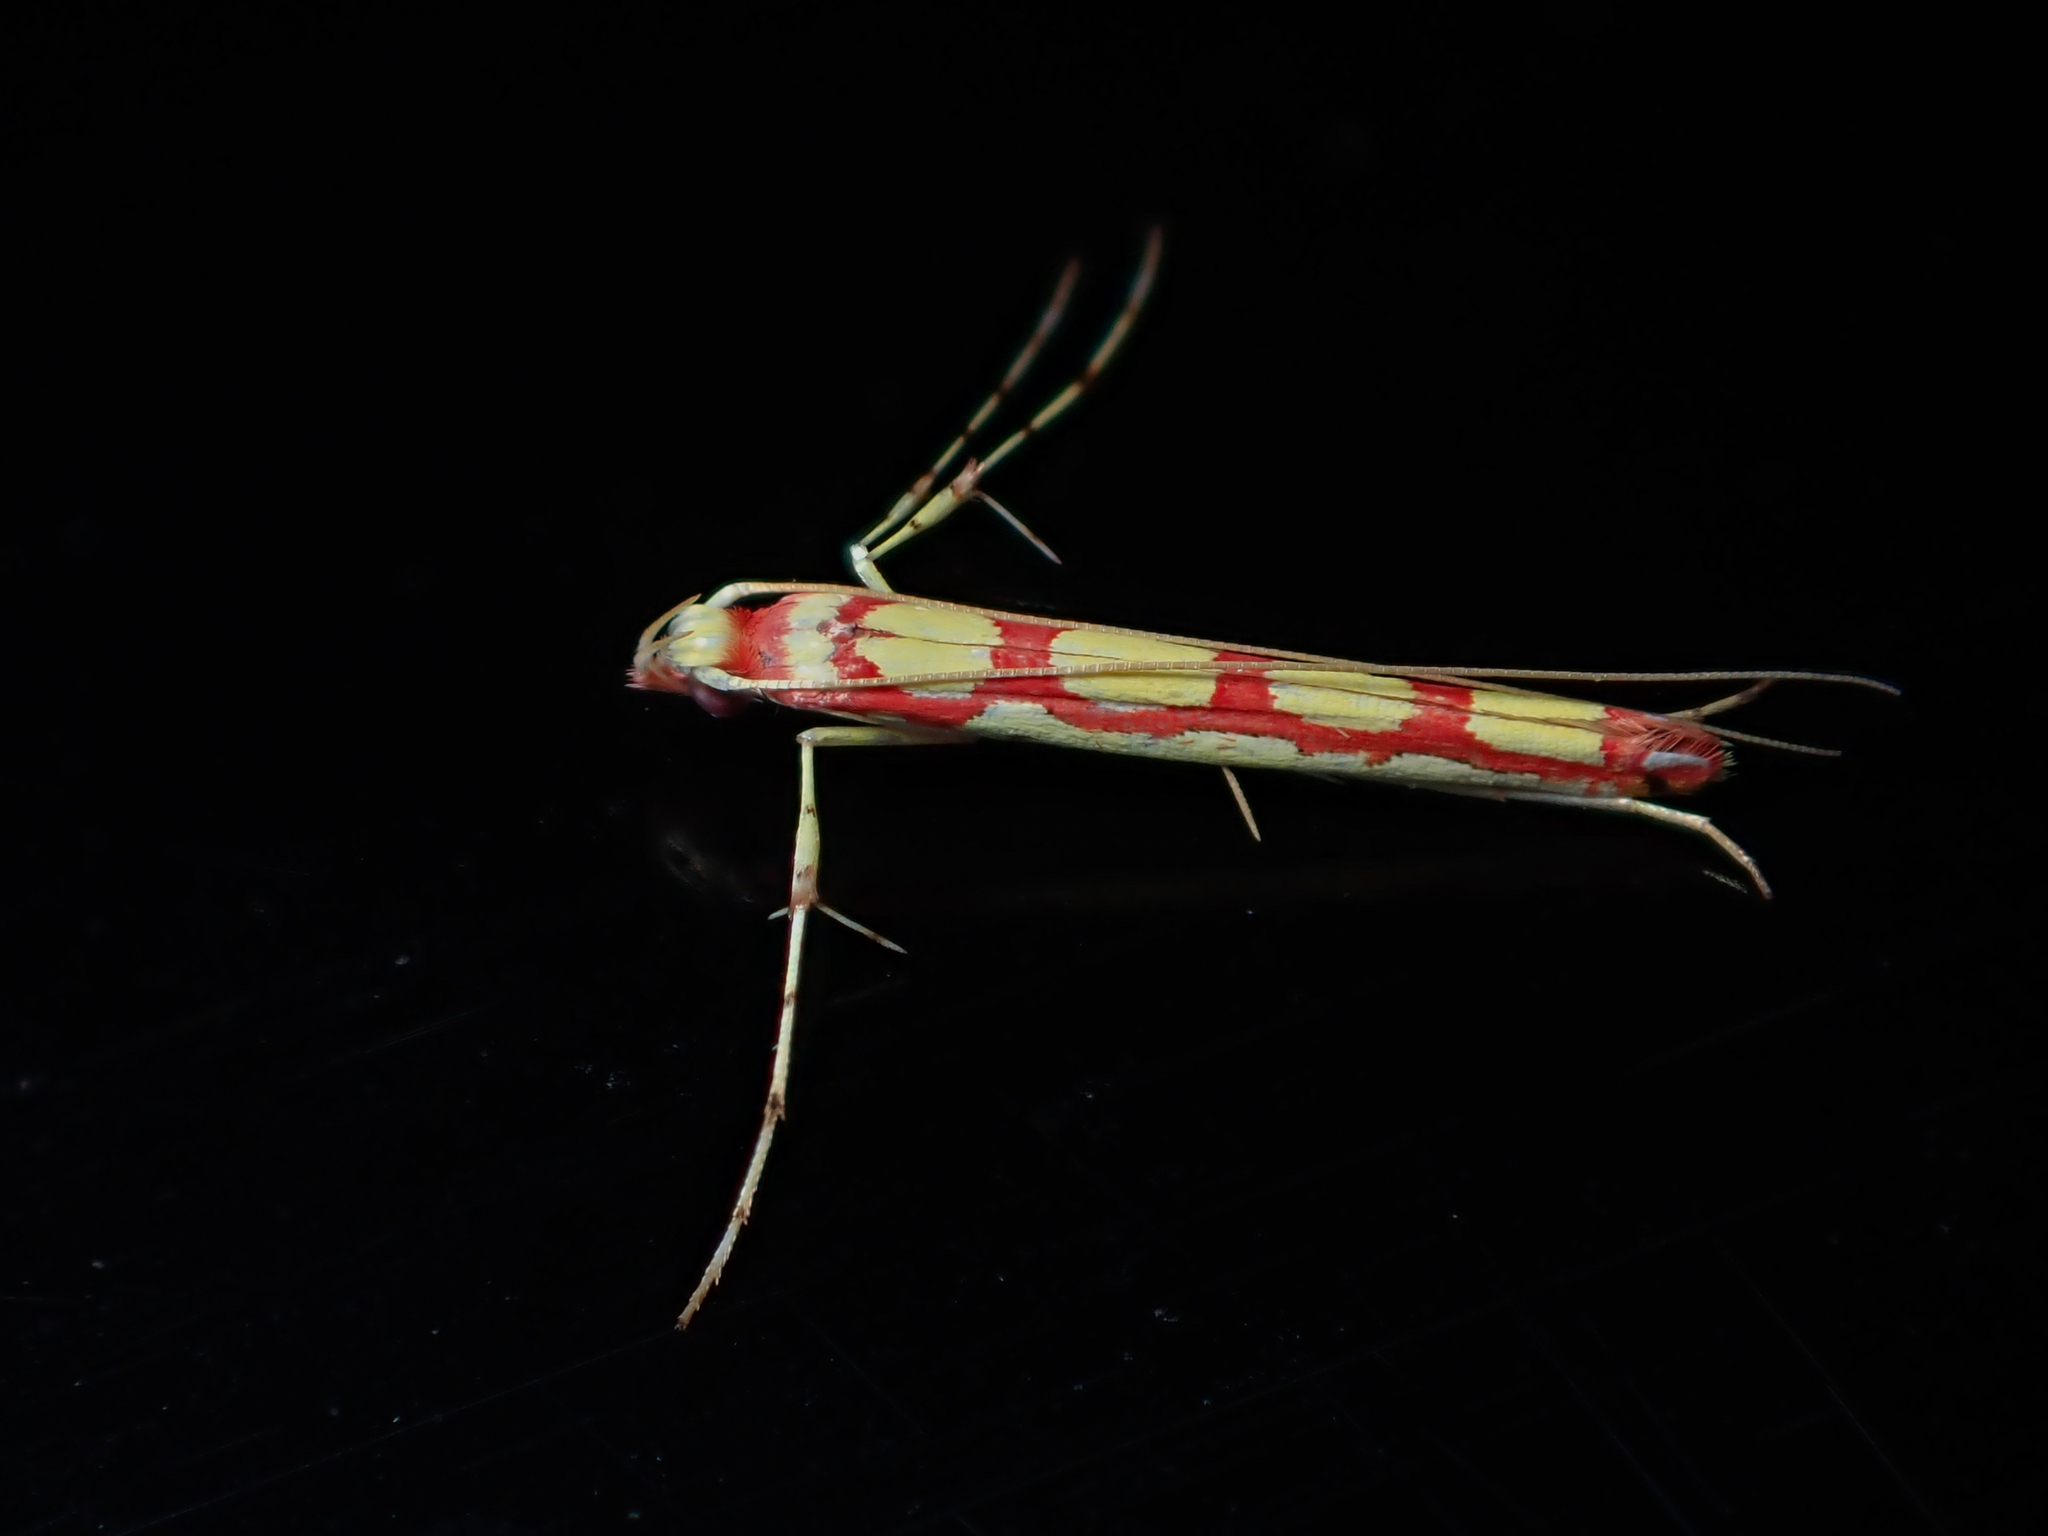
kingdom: Animalia
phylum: Arthropoda
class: Insecta
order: Lepidoptera
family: Gracillariidae
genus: Macarostola
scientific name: Macarostola miniella
